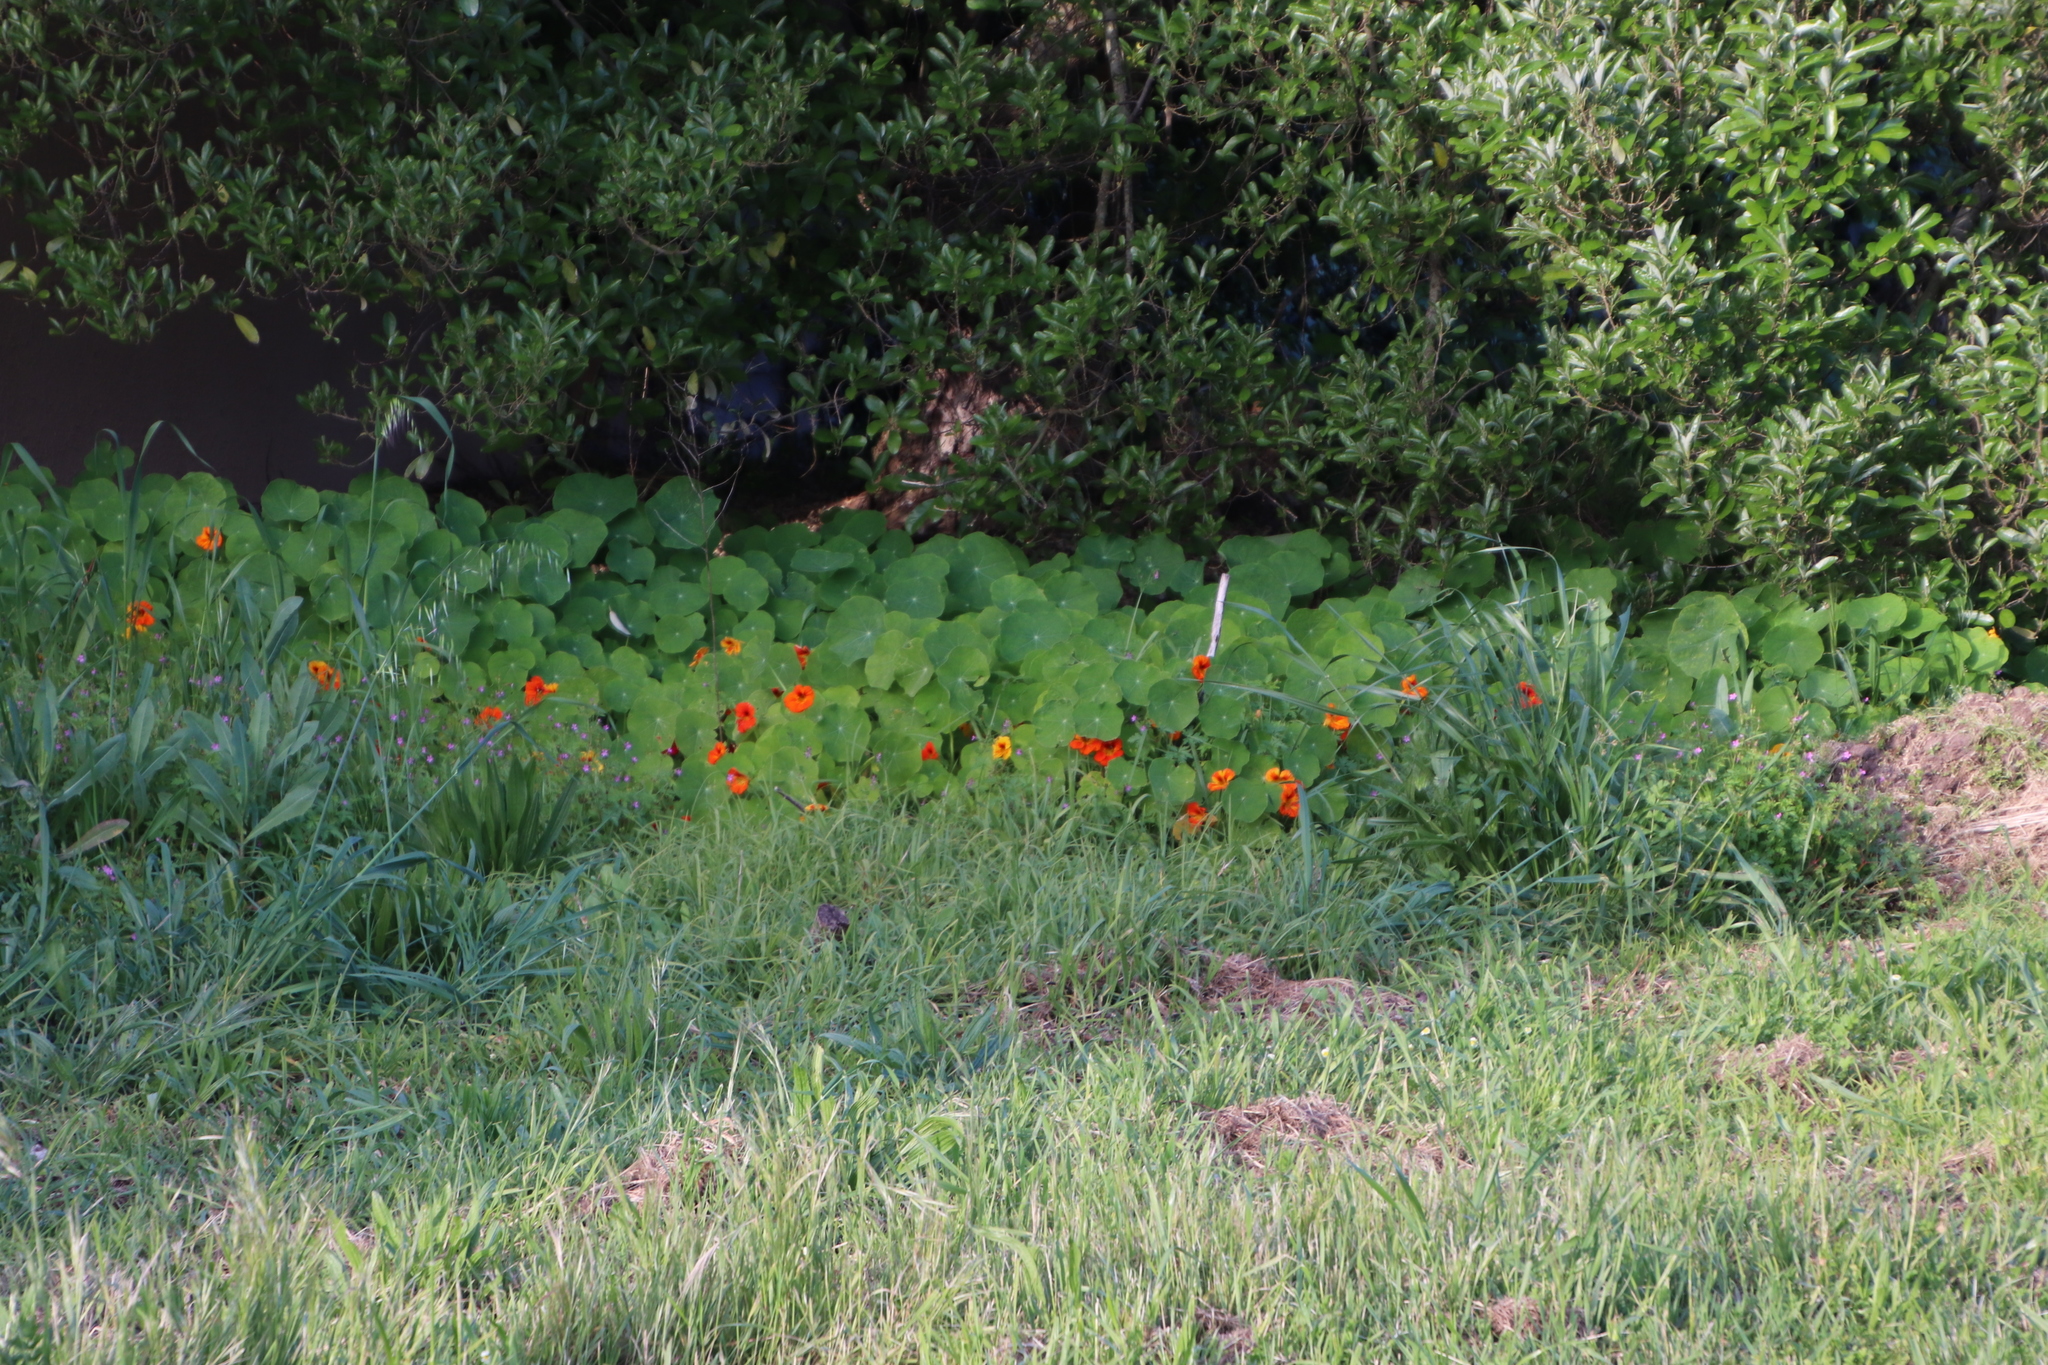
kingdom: Plantae
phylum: Tracheophyta
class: Magnoliopsida
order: Brassicales
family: Tropaeolaceae
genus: Tropaeolum
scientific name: Tropaeolum majus
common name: Nasturtium
